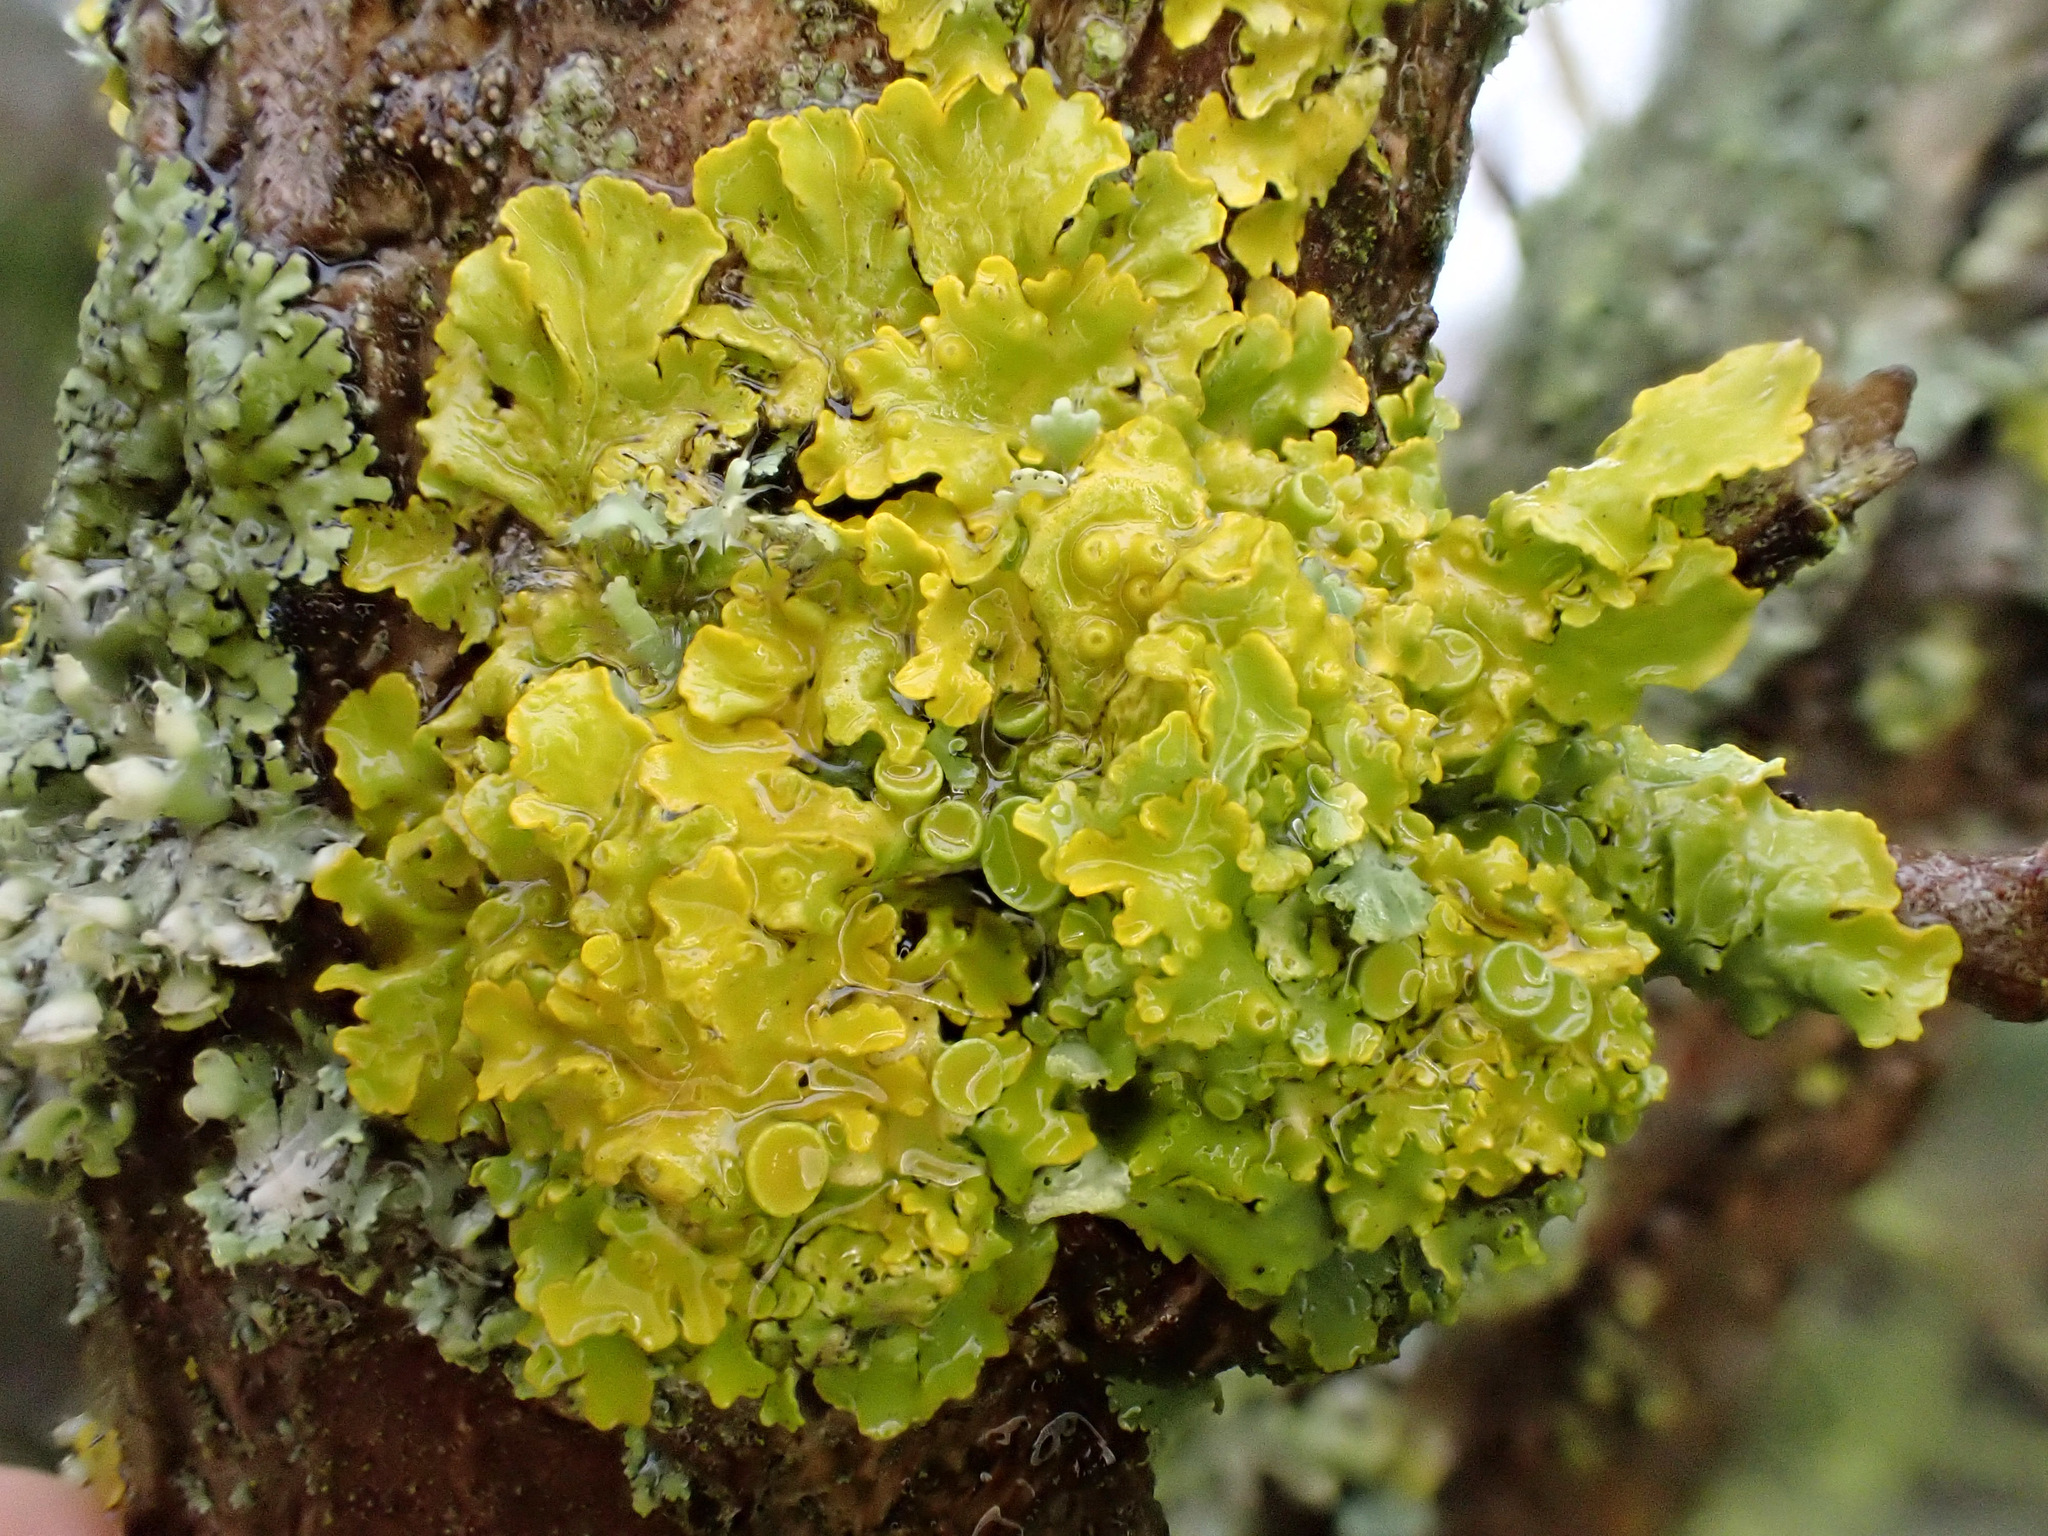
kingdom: Fungi
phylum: Ascomycota
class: Lecanoromycetes
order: Teloschistales
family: Teloschistaceae
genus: Xanthoria
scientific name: Xanthoria parietina
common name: Common orange lichen
